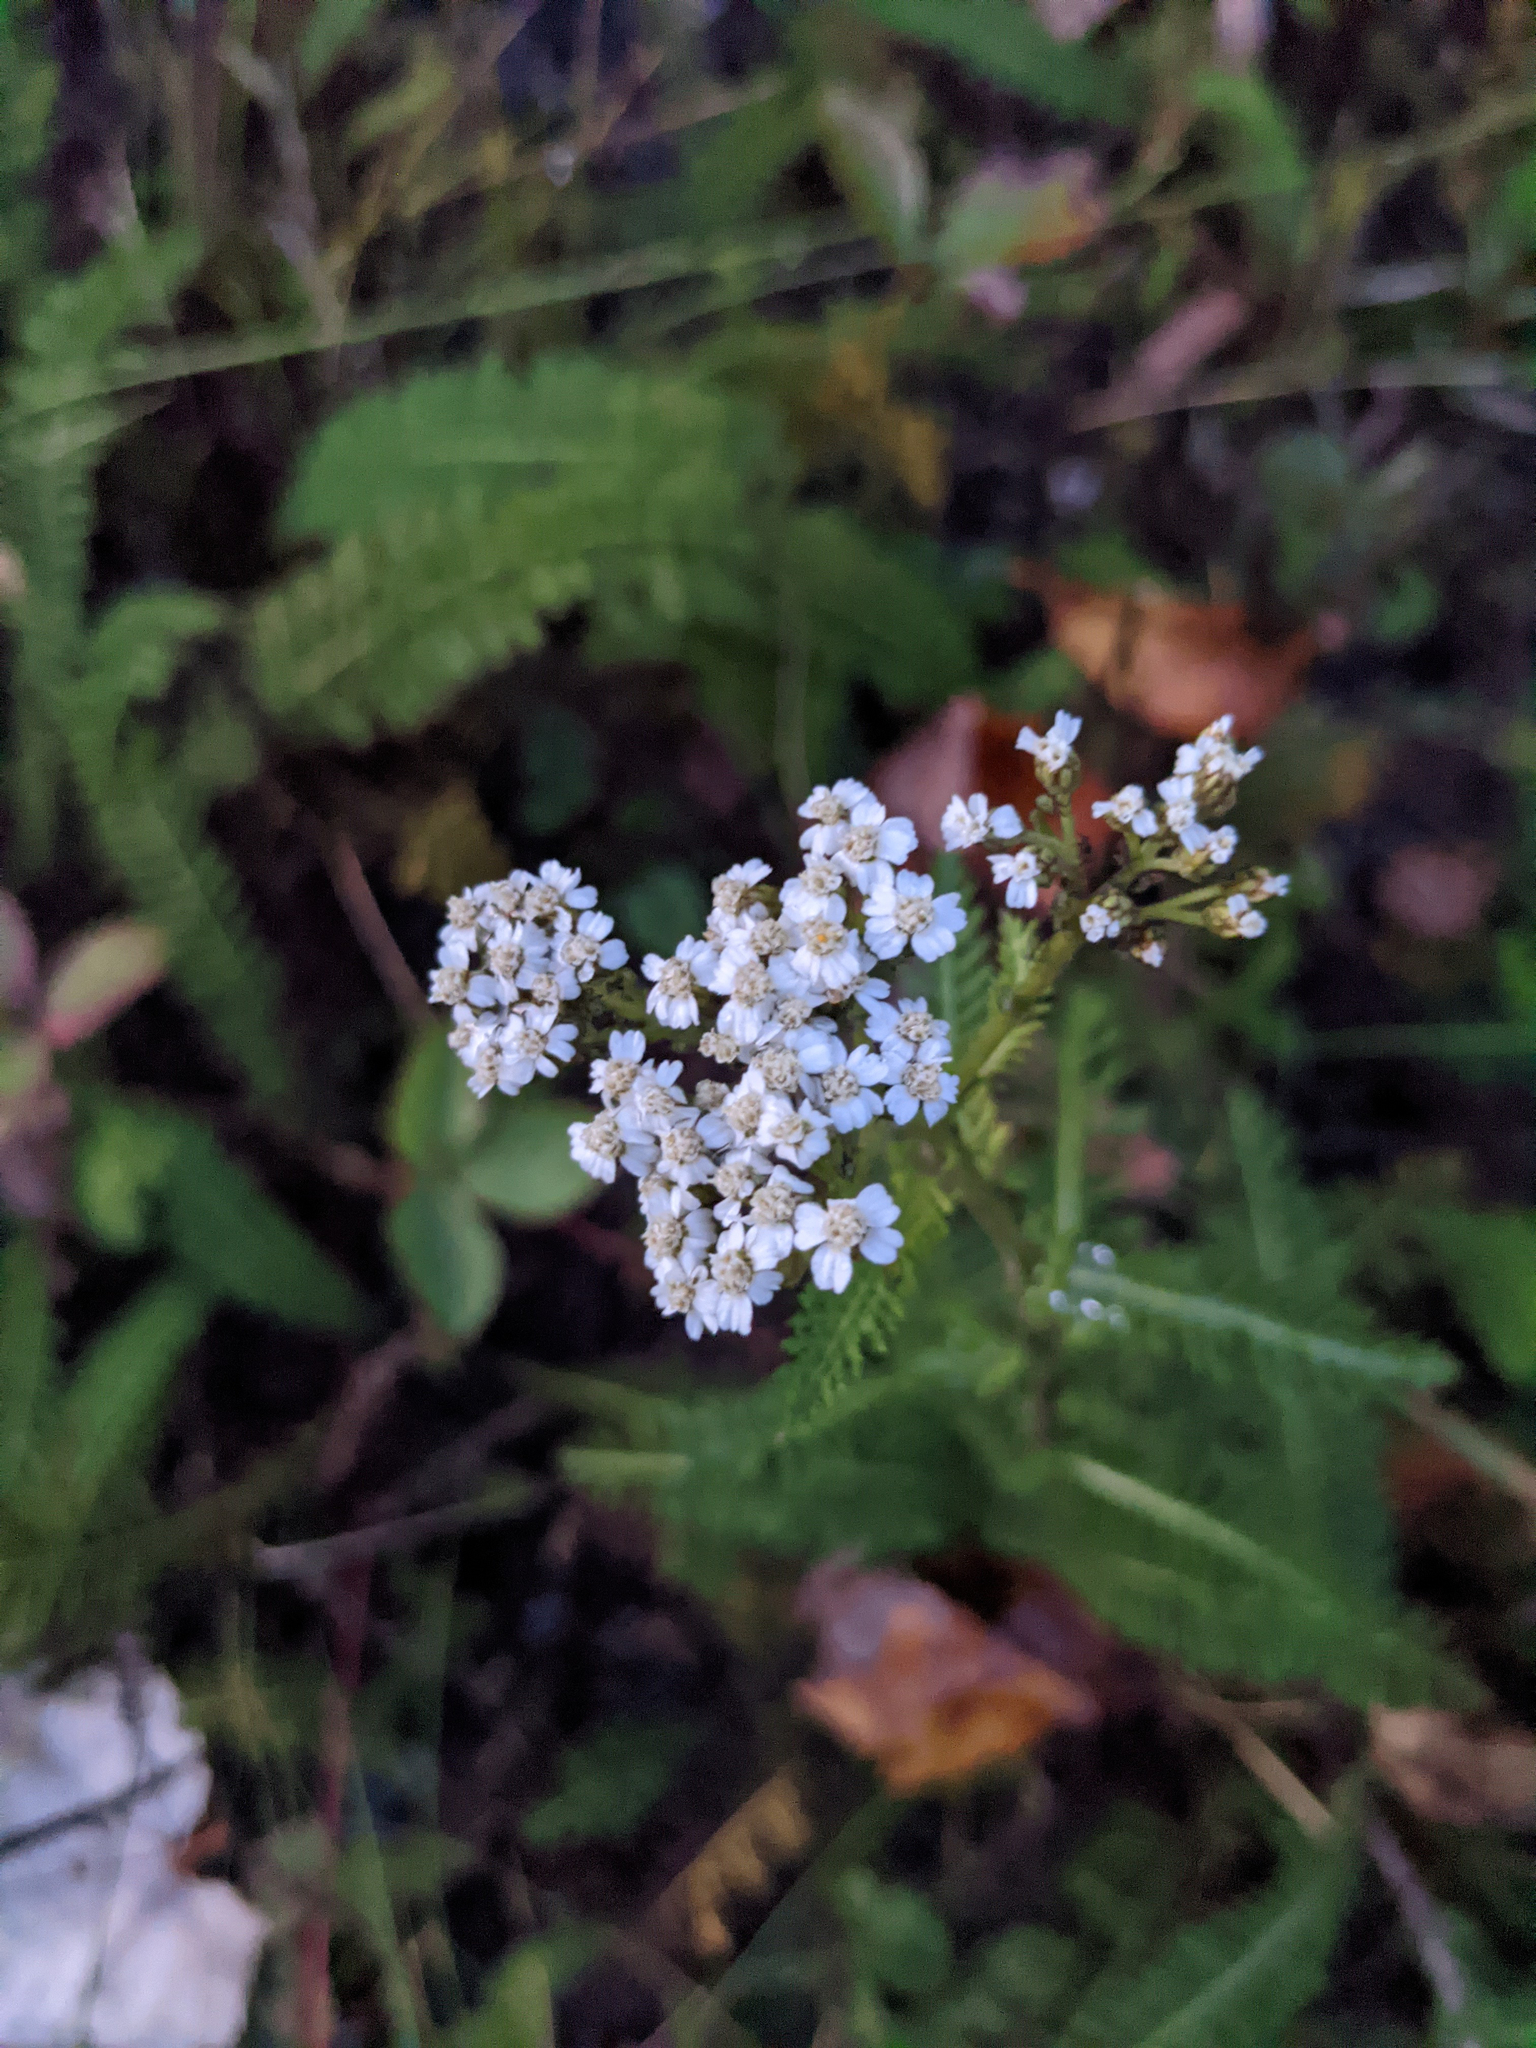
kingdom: Plantae
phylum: Tracheophyta
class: Magnoliopsida
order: Asterales
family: Asteraceae
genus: Achillea
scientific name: Achillea millefolium
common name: Yarrow
